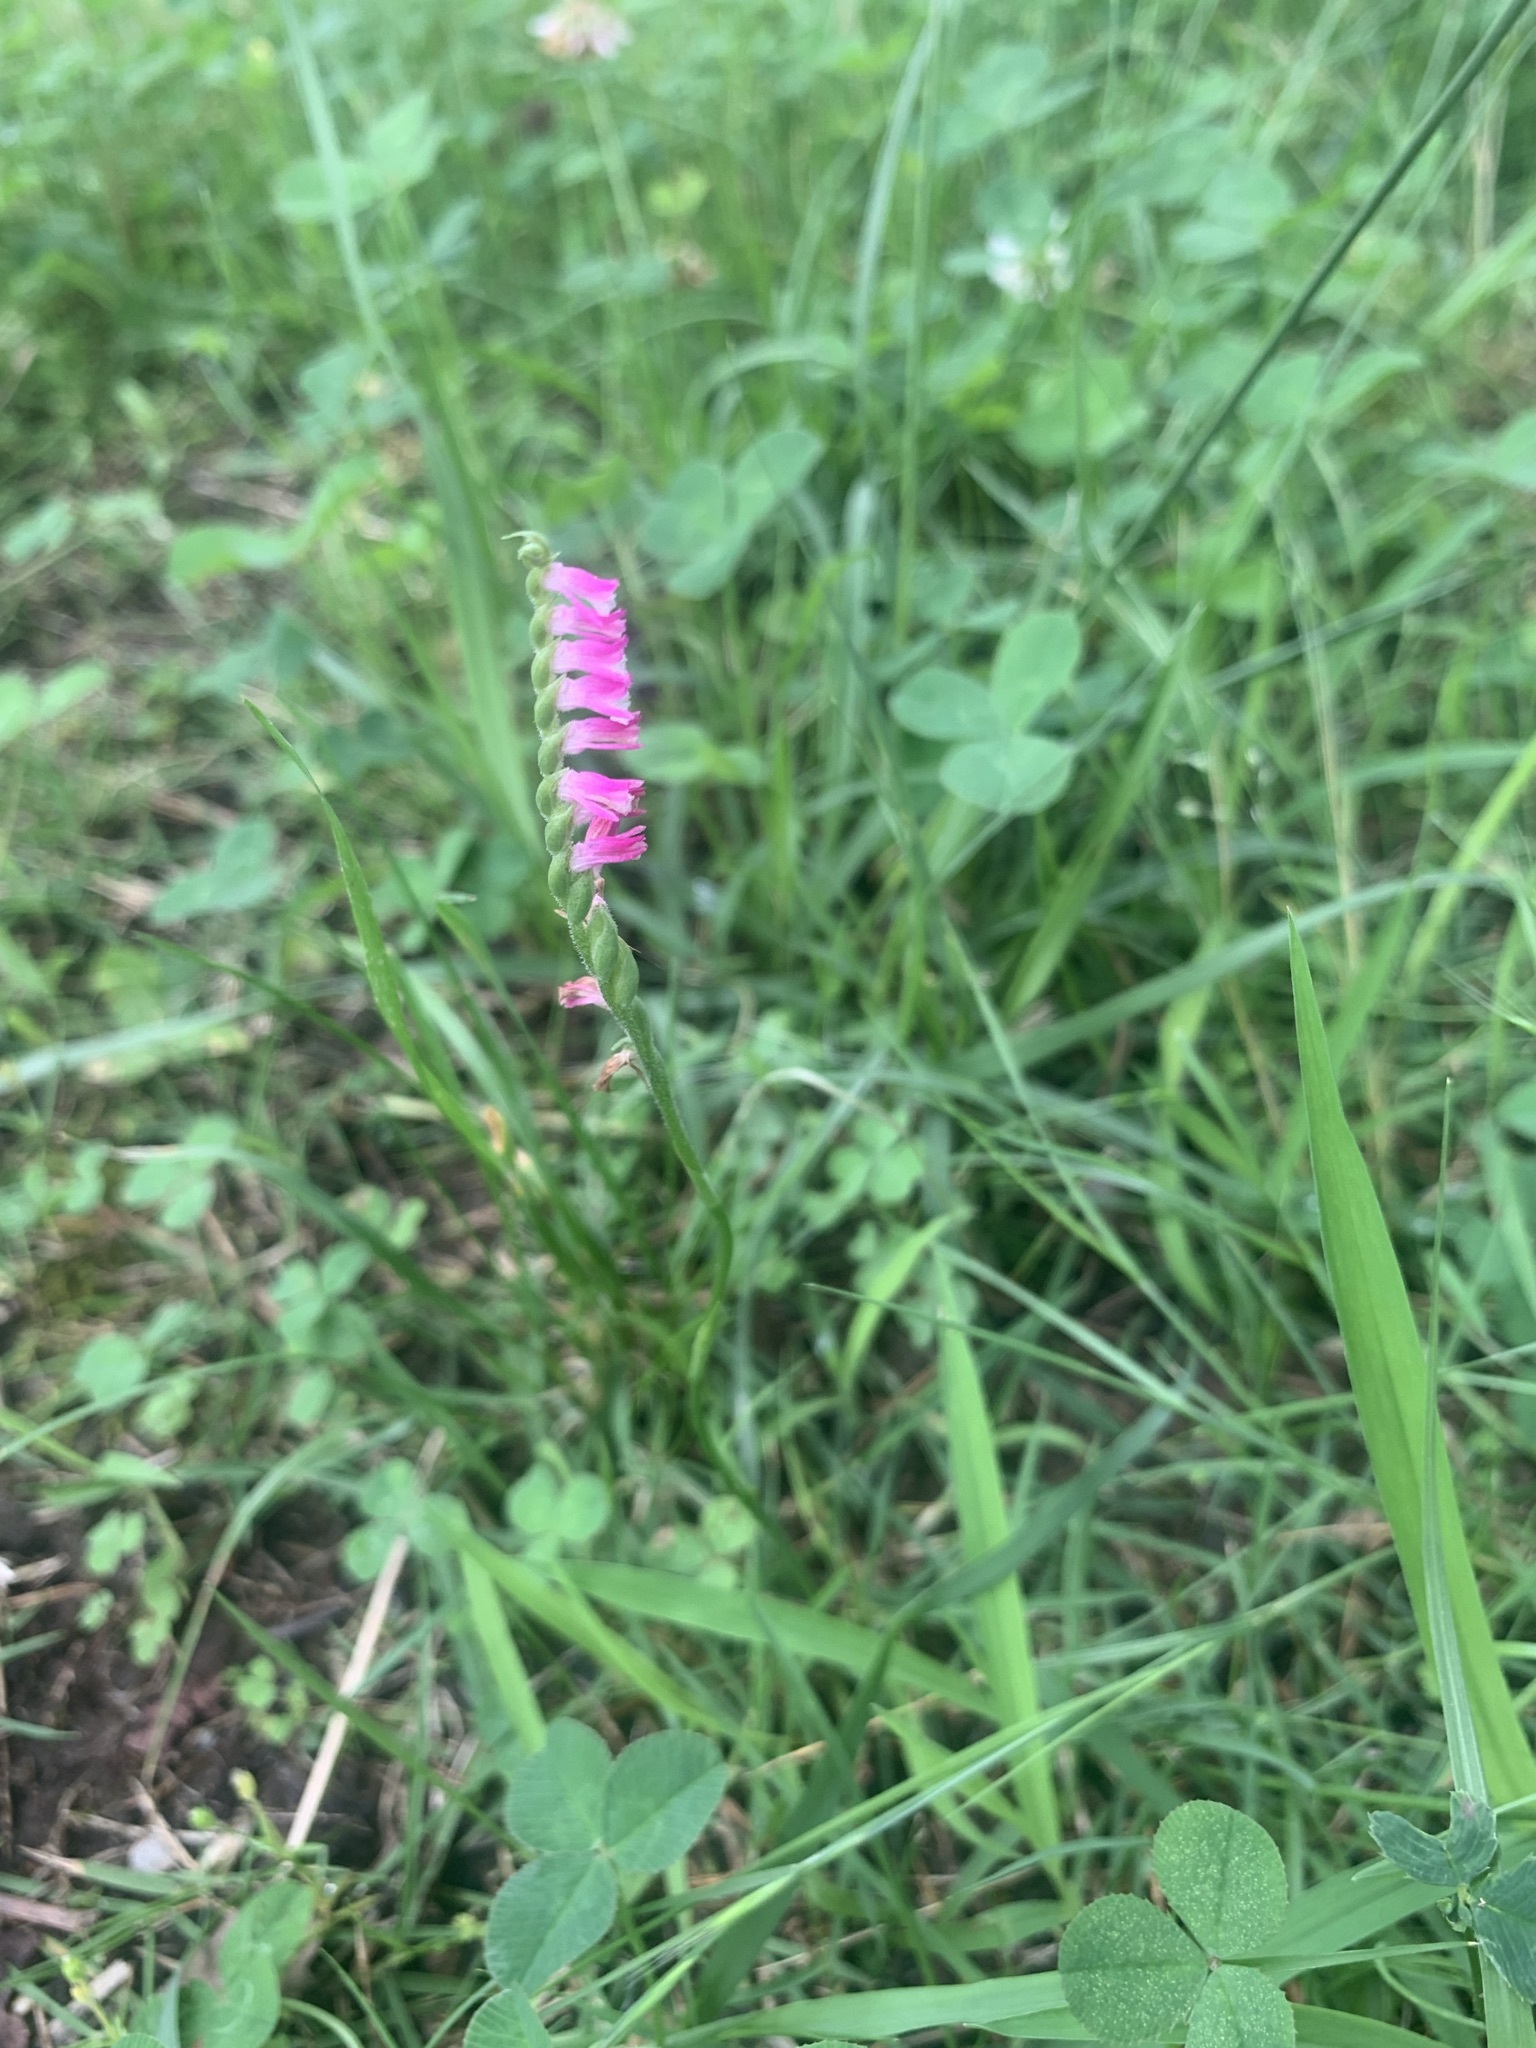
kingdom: Plantae
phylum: Tracheophyta
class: Liliopsida
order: Asparagales
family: Orchidaceae
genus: Spiranthes
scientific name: Spiranthes australis
